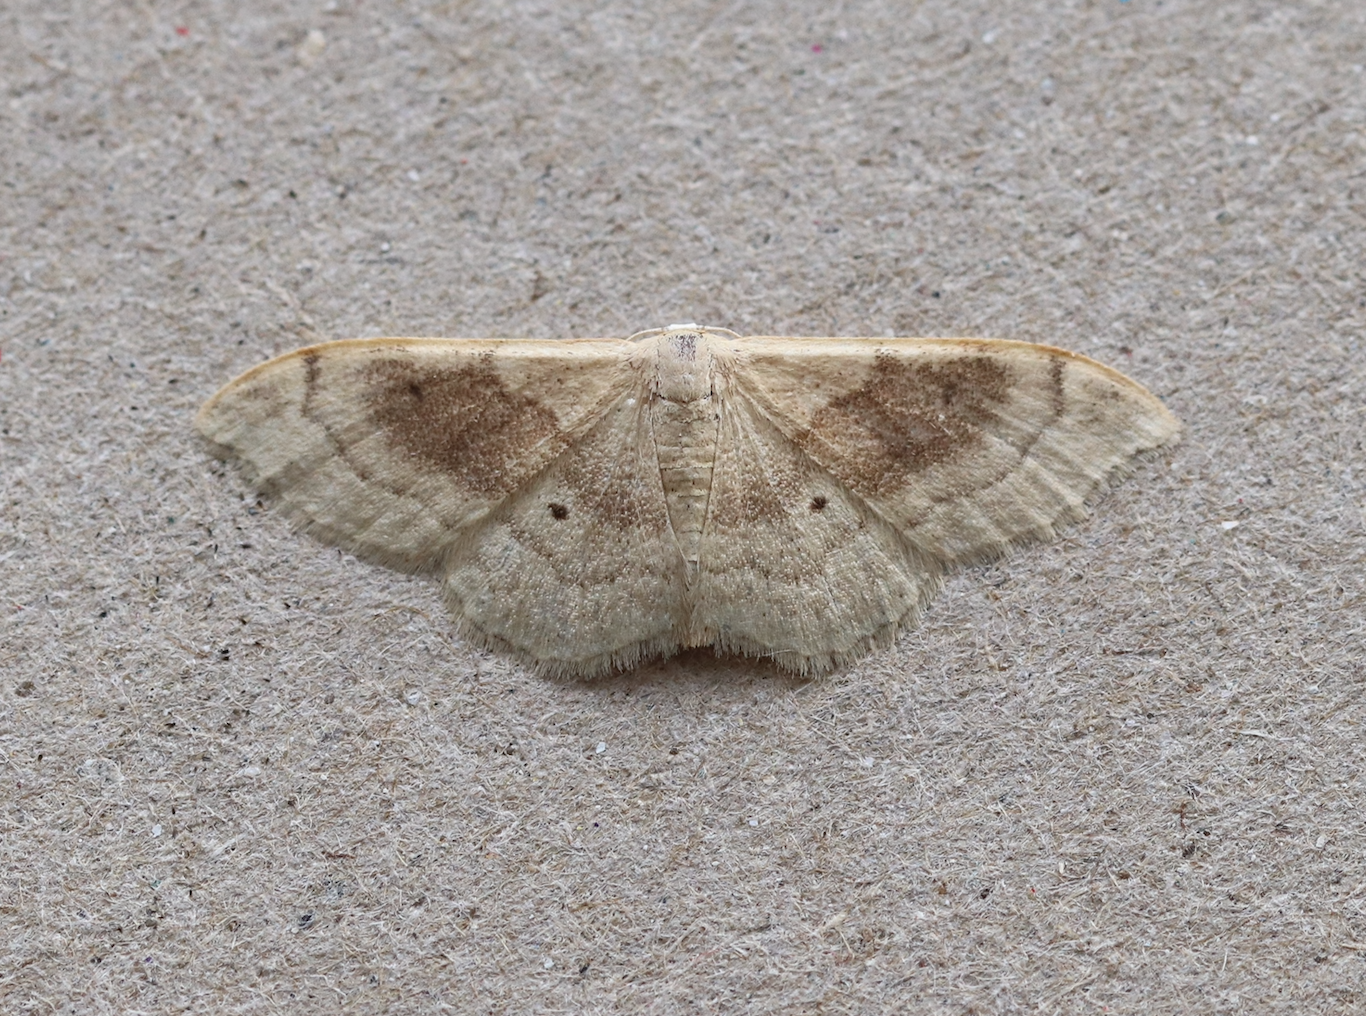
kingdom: Animalia
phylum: Arthropoda
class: Insecta
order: Lepidoptera
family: Geometridae
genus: Idaea
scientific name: Idaea degeneraria
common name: Portland ribbon wave
